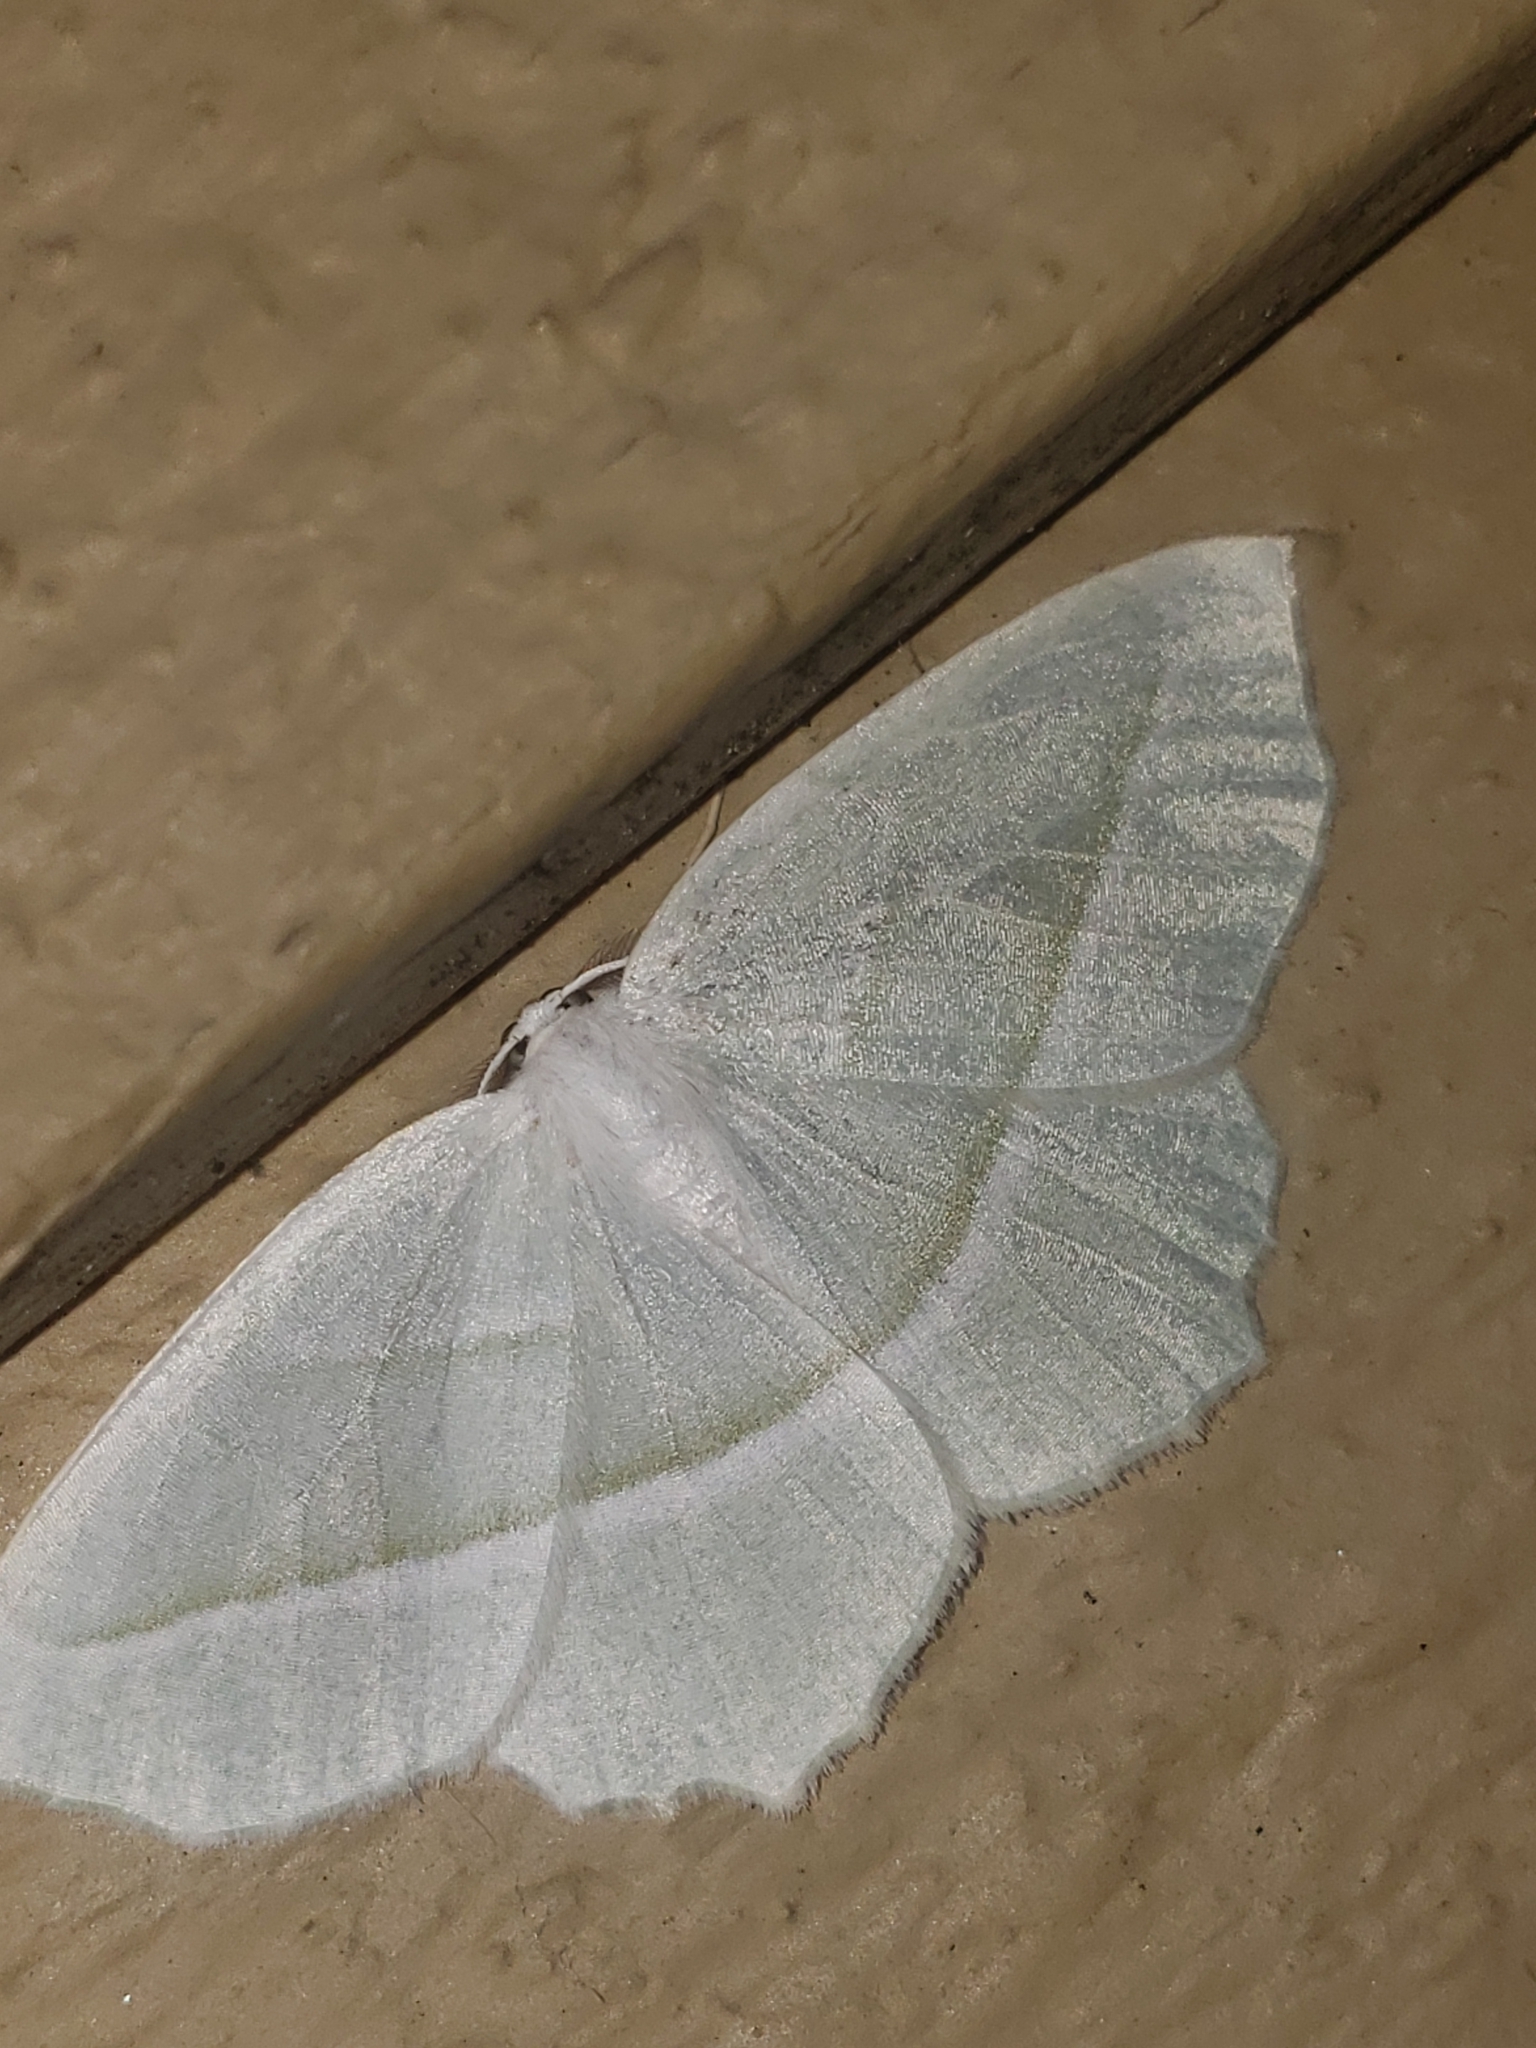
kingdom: Animalia
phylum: Arthropoda
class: Insecta
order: Lepidoptera
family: Geometridae
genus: Campaea
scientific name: Campaea perlata
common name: Fringed looper
